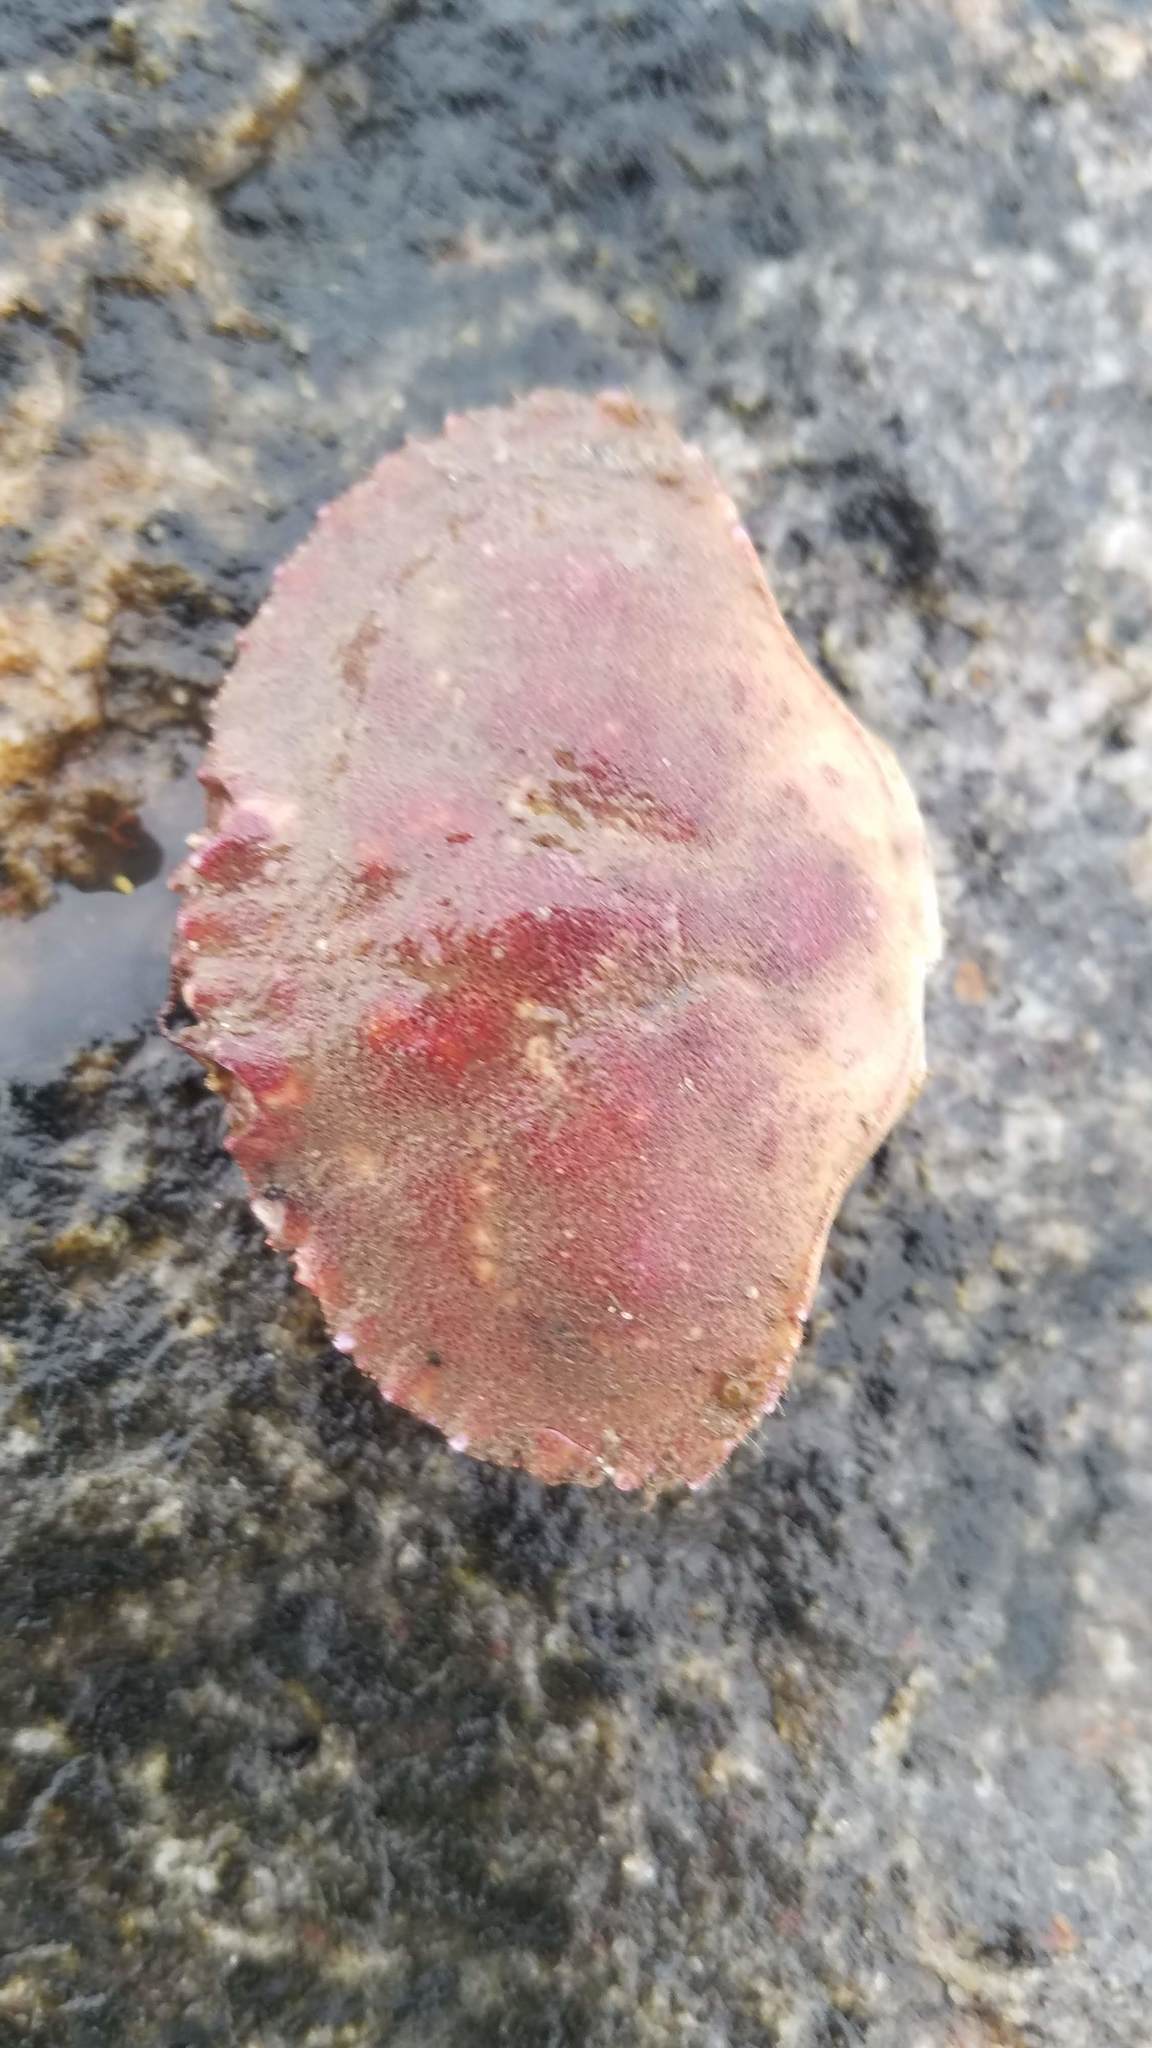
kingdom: Animalia
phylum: Arthropoda
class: Malacostraca
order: Decapoda
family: Cancridae
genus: Cancer
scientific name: Cancer borealis
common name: Jonah crab
